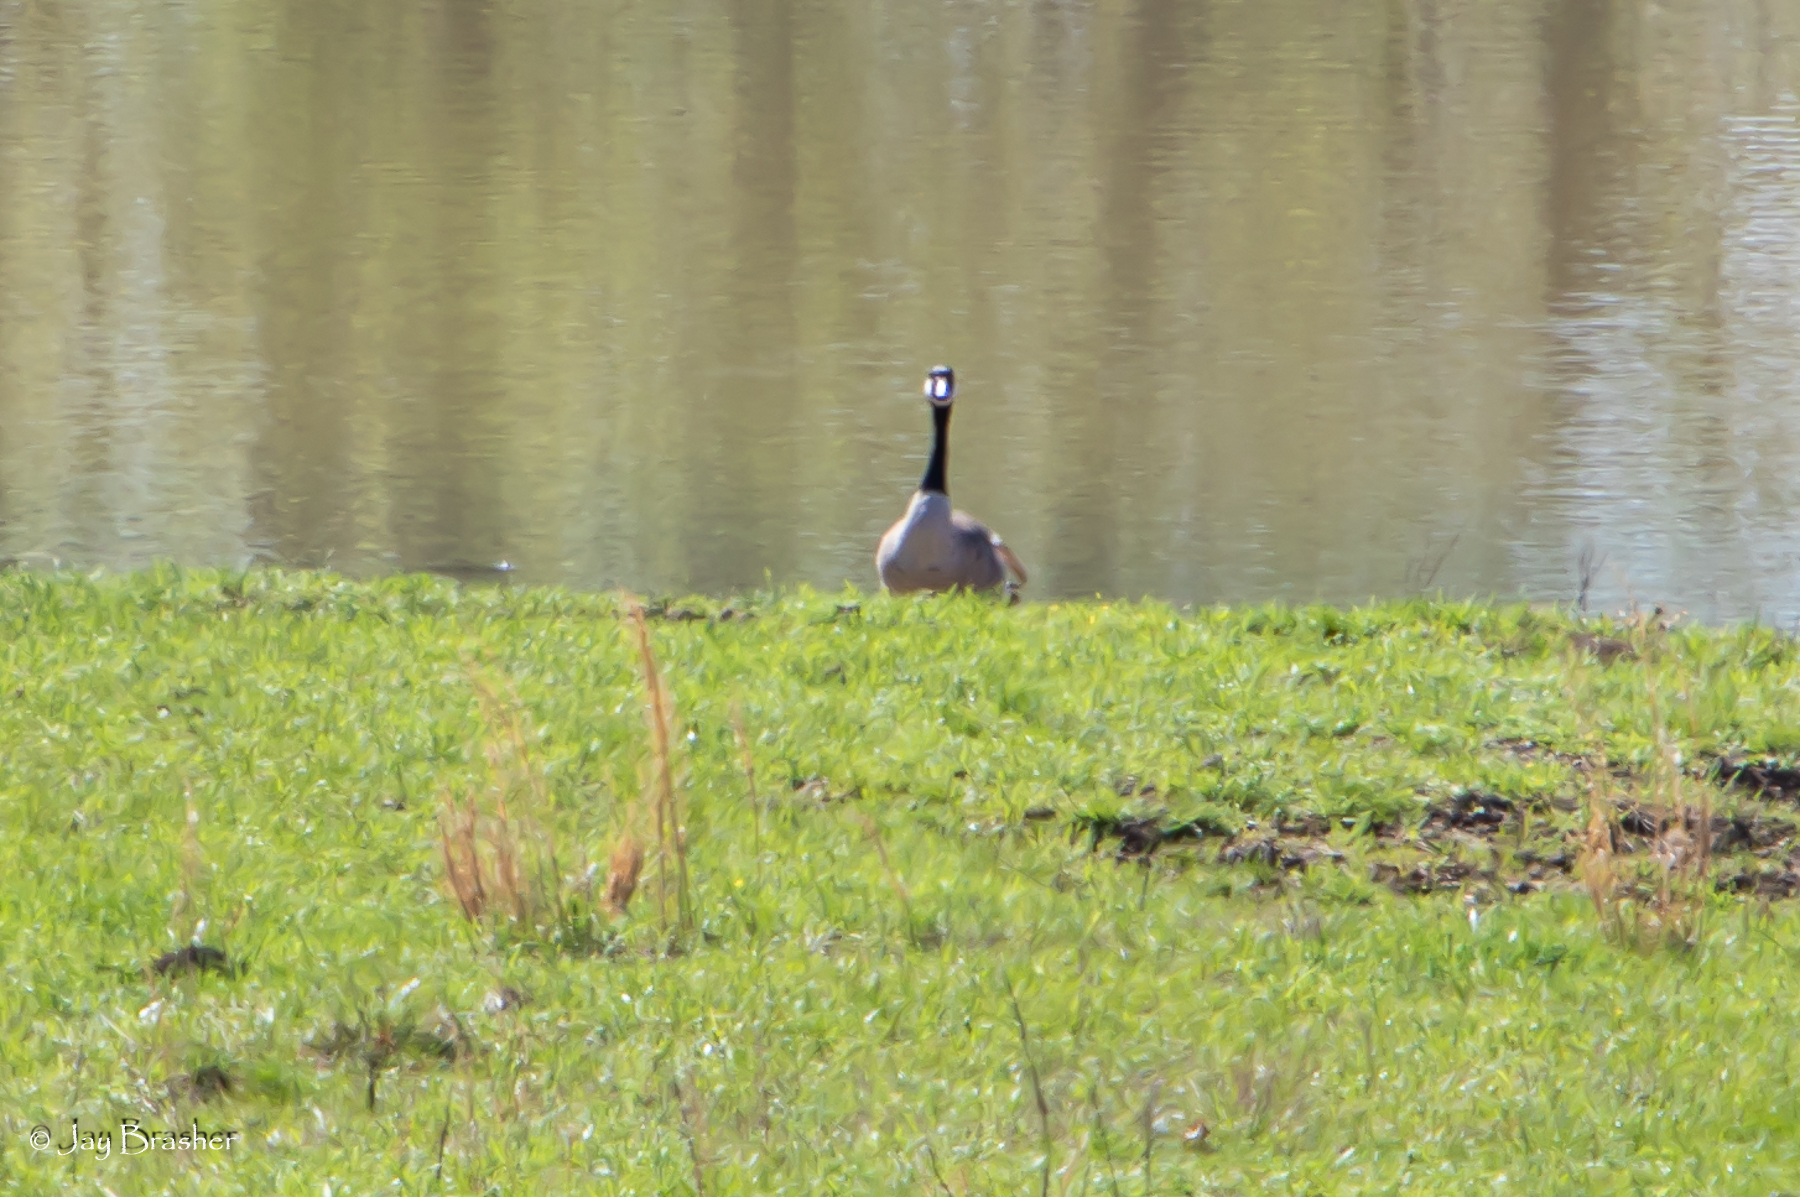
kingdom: Animalia
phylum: Chordata
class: Aves
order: Anseriformes
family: Anatidae
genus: Branta
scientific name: Branta canadensis
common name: Canada goose
